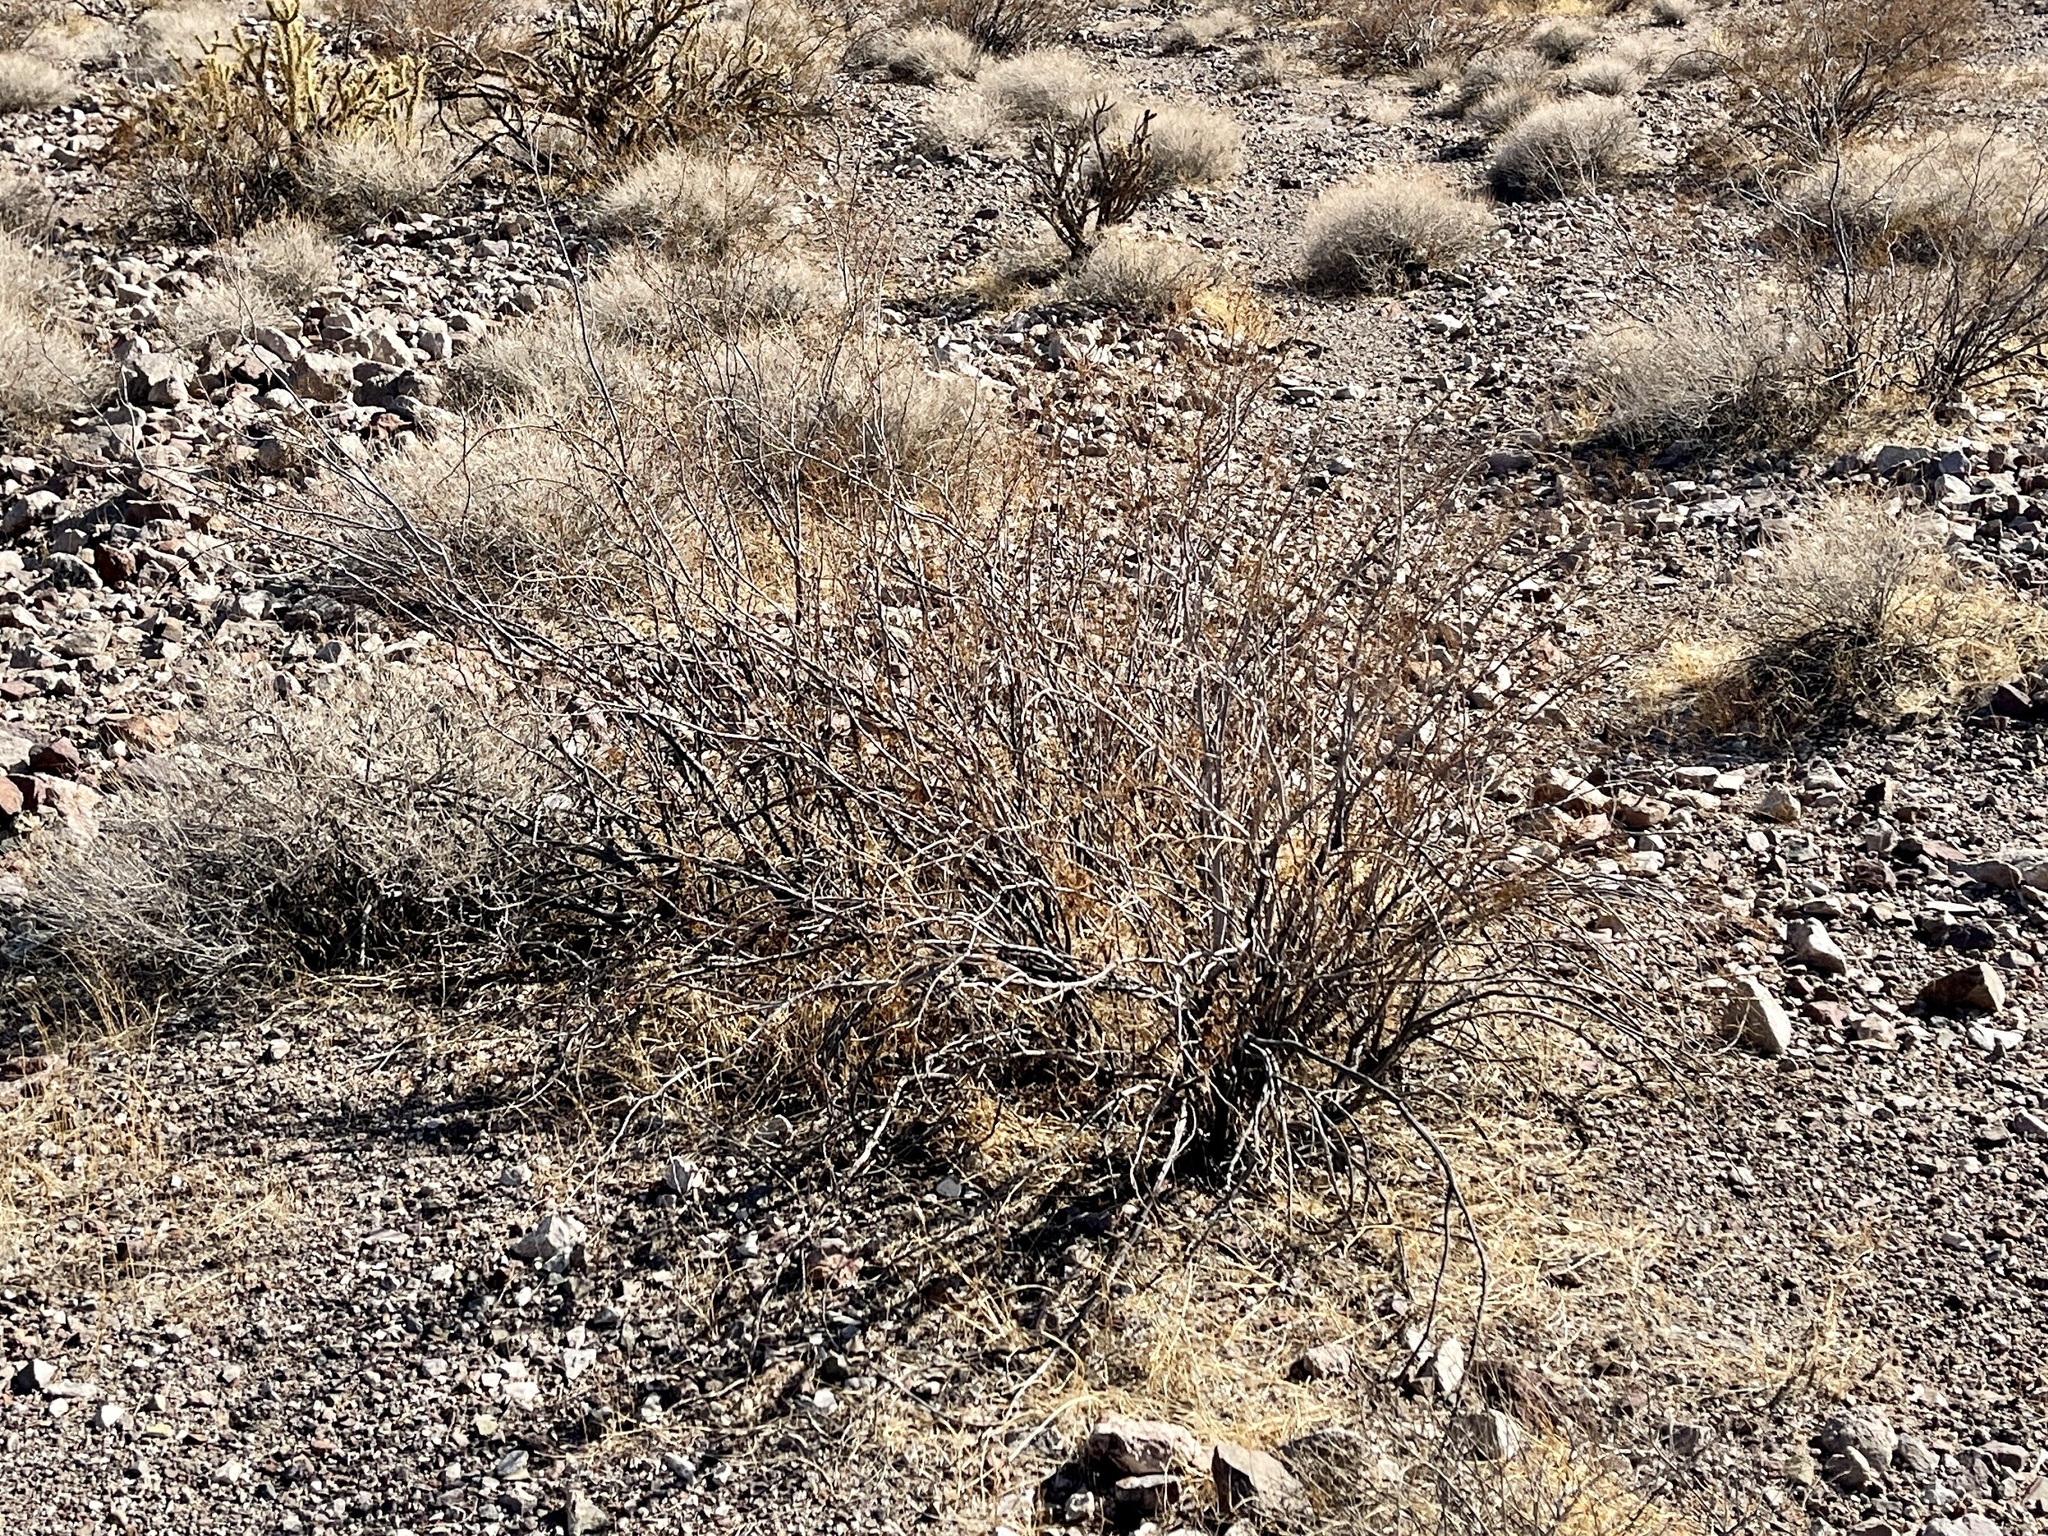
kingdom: Plantae
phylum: Tracheophyta
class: Magnoliopsida
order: Zygophyllales
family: Zygophyllaceae
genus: Larrea
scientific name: Larrea tridentata
